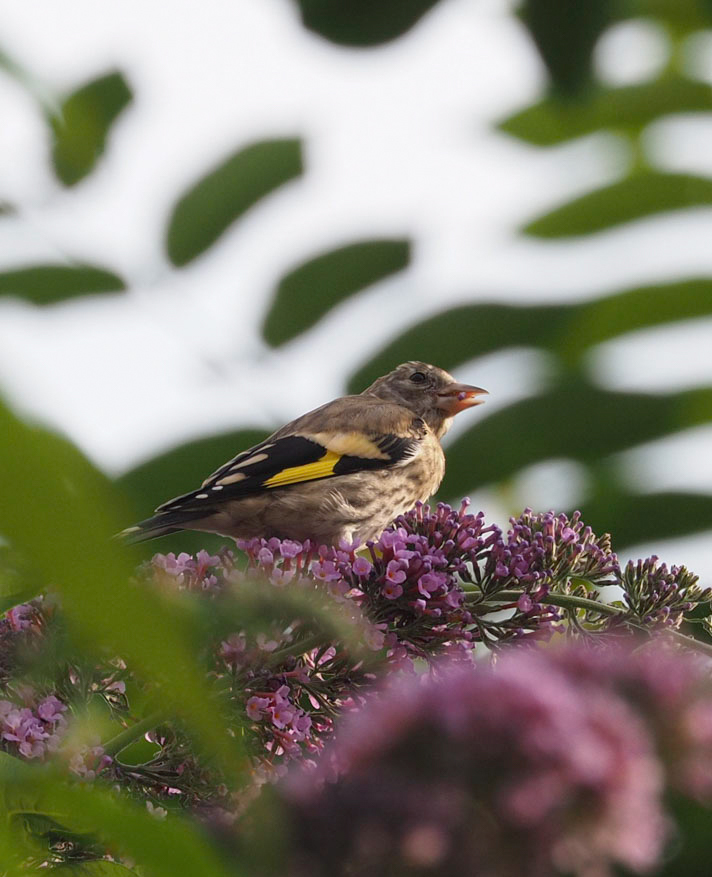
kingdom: Animalia
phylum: Chordata
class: Aves
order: Passeriformes
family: Fringillidae
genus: Carduelis
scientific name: Carduelis carduelis
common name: European goldfinch
